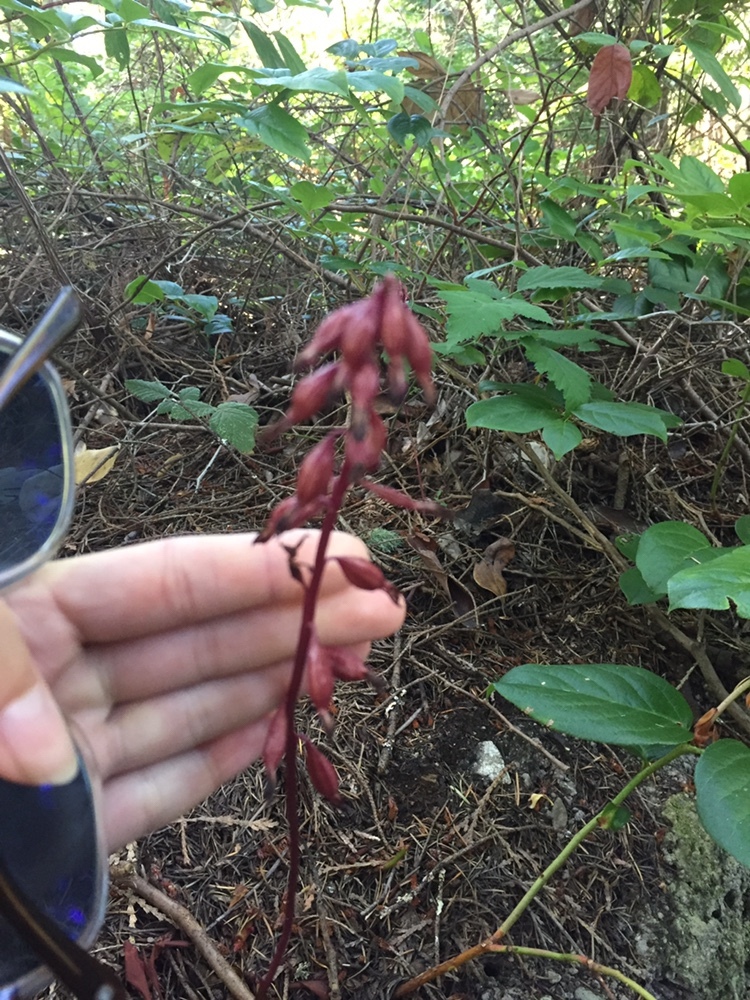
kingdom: Plantae
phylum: Tracheophyta
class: Liliopsida
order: Asparagales
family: Orchidaceae
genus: Corallorhiza
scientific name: Corallorhiza maculata
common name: Spotted coralroot
